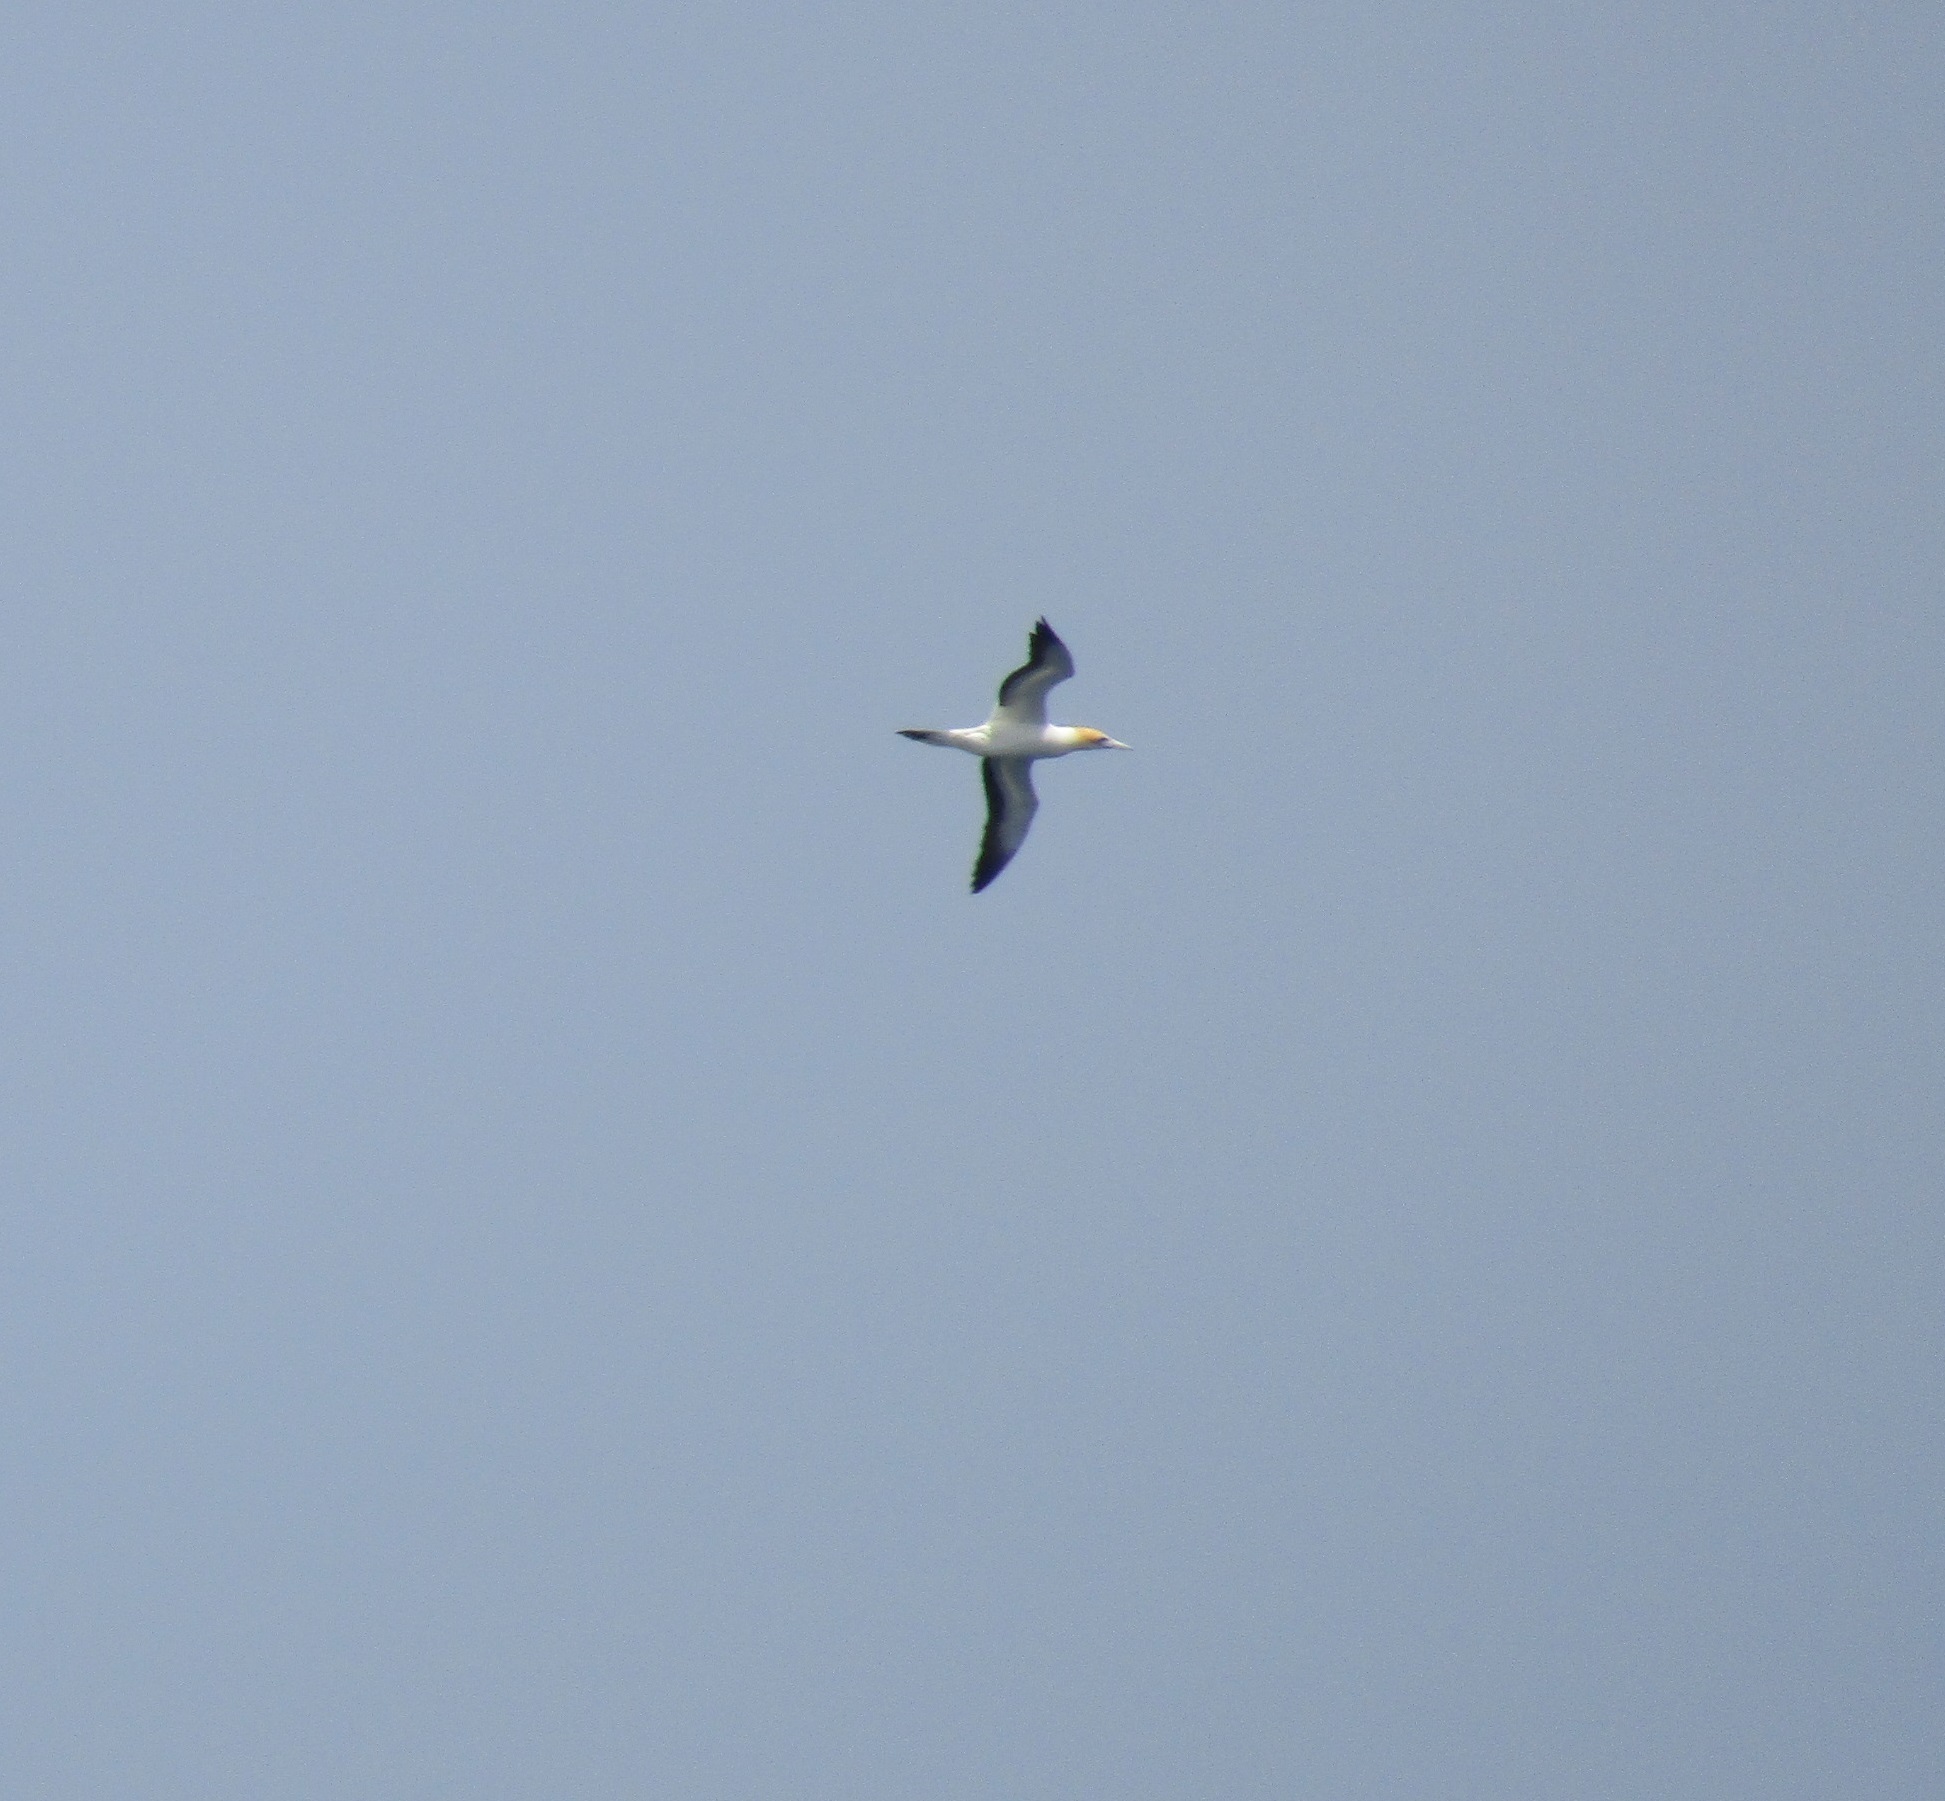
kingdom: Animalia
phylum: Chordata
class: Aves
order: Suliformes
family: Sulidae
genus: Morus
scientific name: Morus serrator
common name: Australasian gannet
